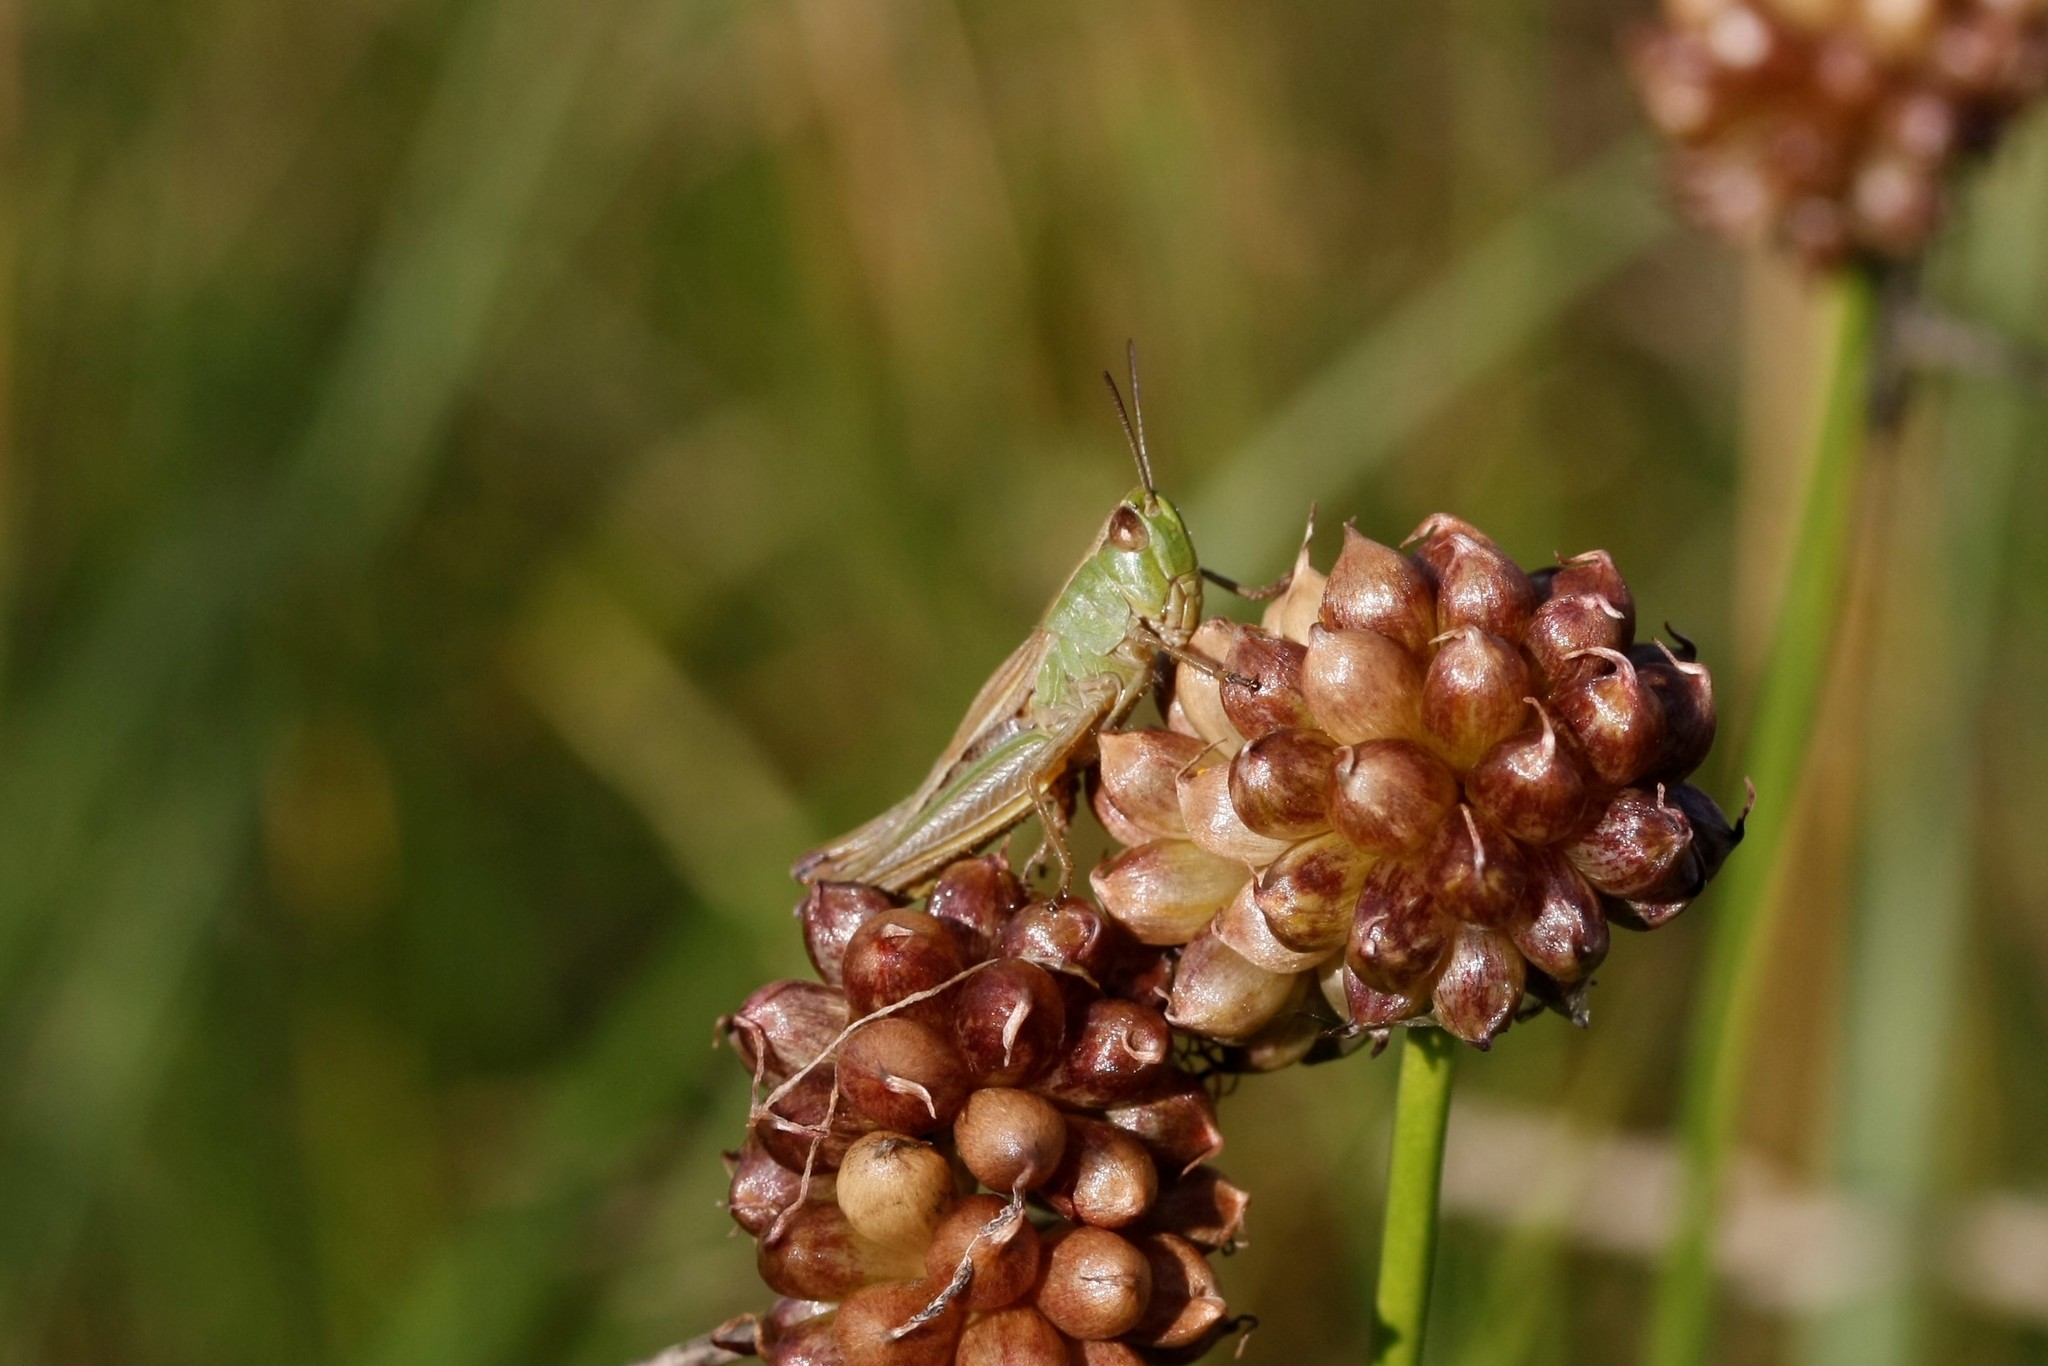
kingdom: Animalia
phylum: Arthropoda
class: Insecta
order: Orthoptera
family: Acrididae
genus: Pseudochorthippus
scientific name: Pseudochorthippus parallelus
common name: Meadow grasshopper
